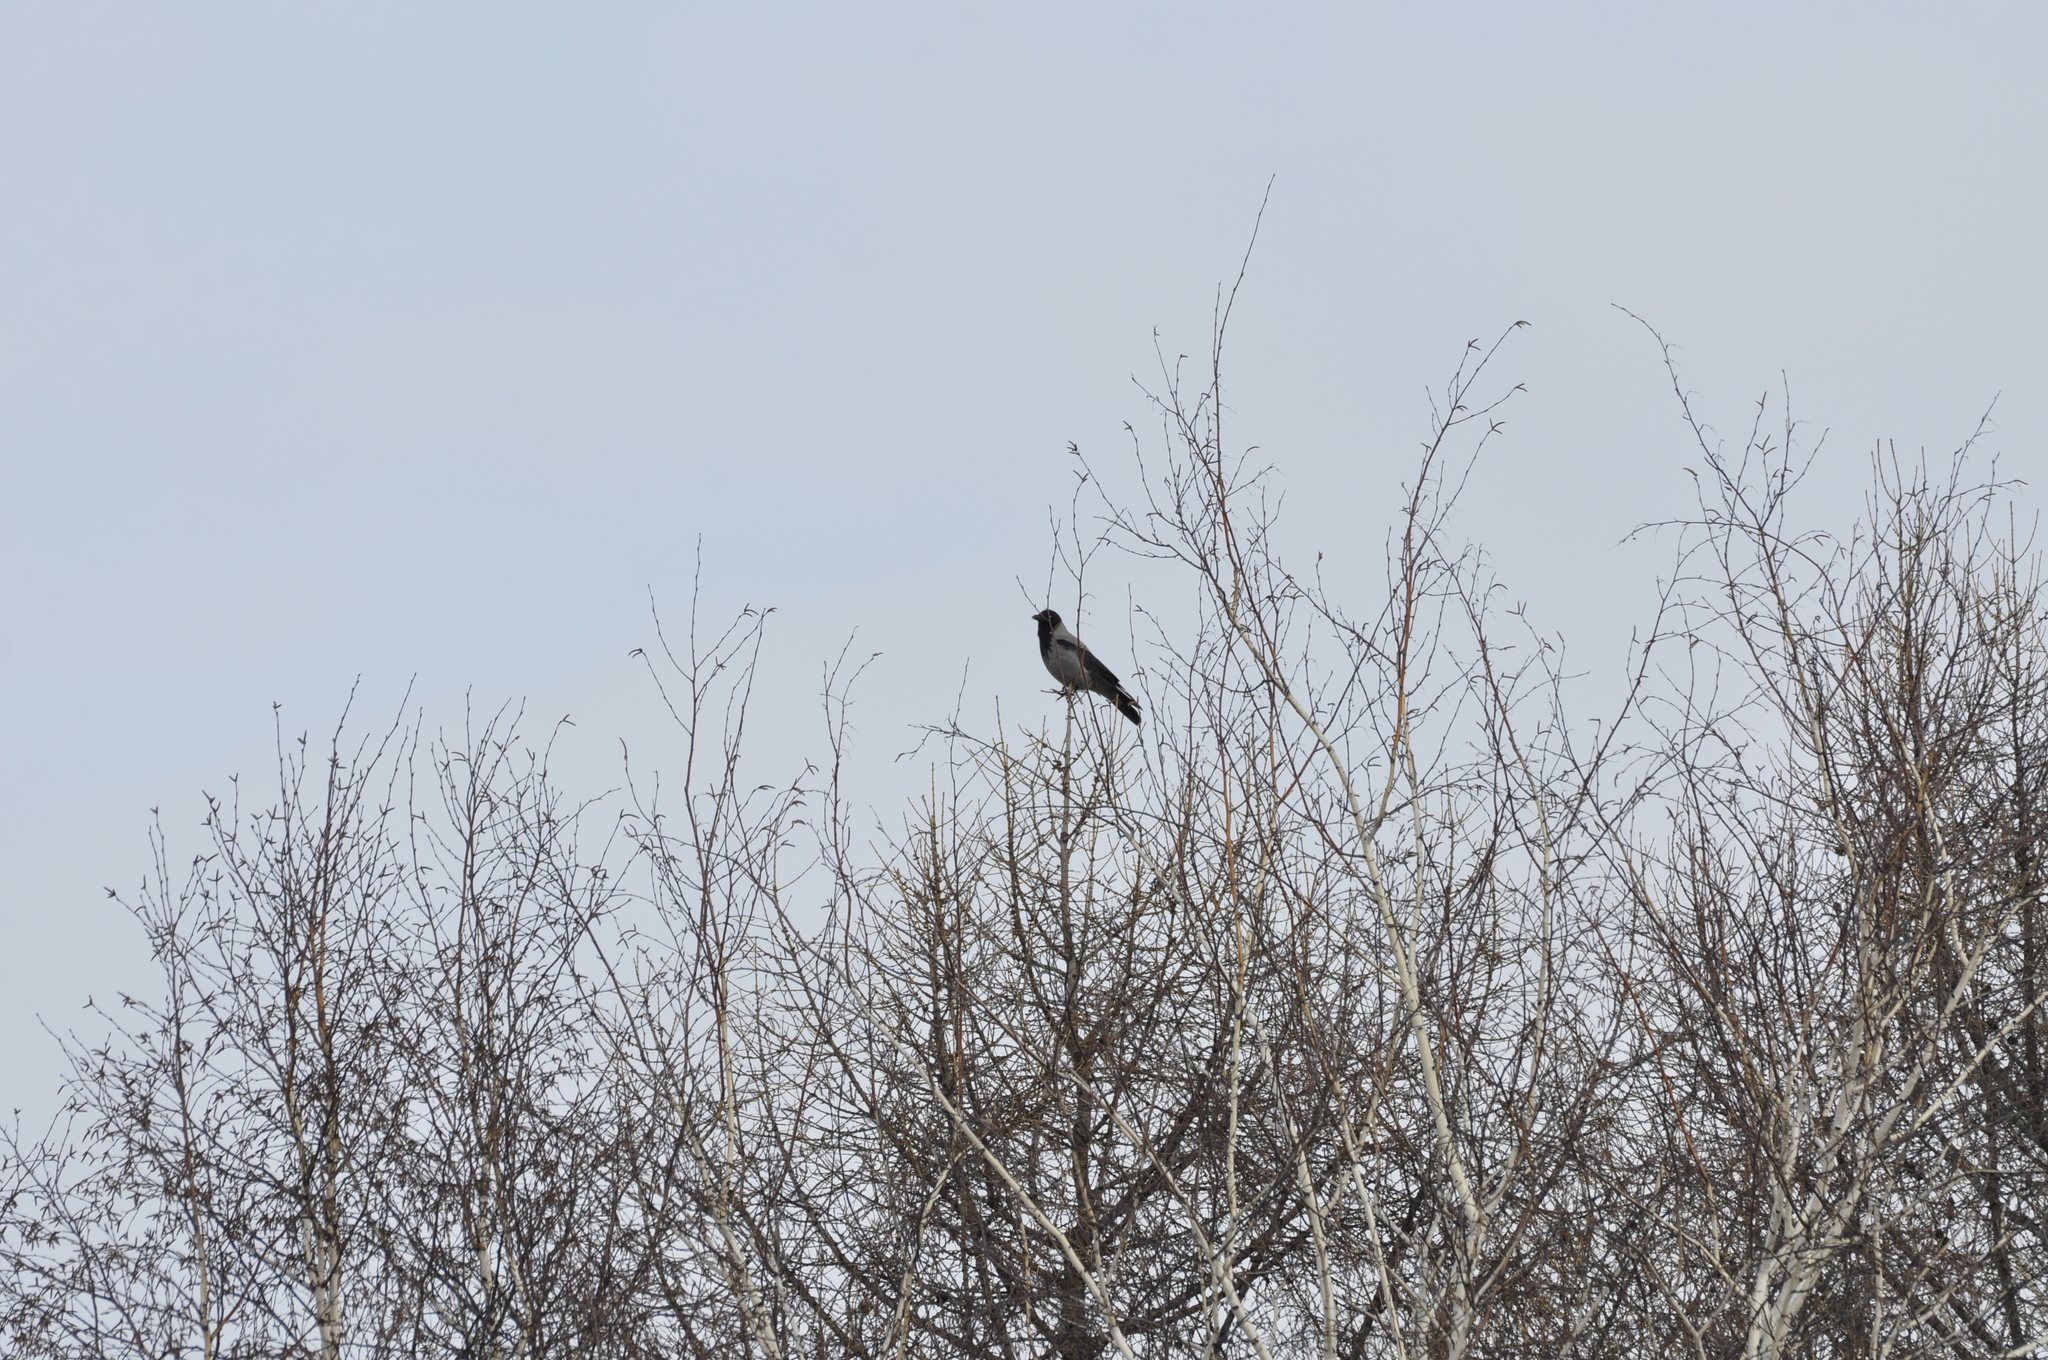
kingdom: Animalia
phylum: Chordata
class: Aves
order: Passeriformes
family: Corvidae
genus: Corvus
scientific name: Corvus cornix
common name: Hooded crow
